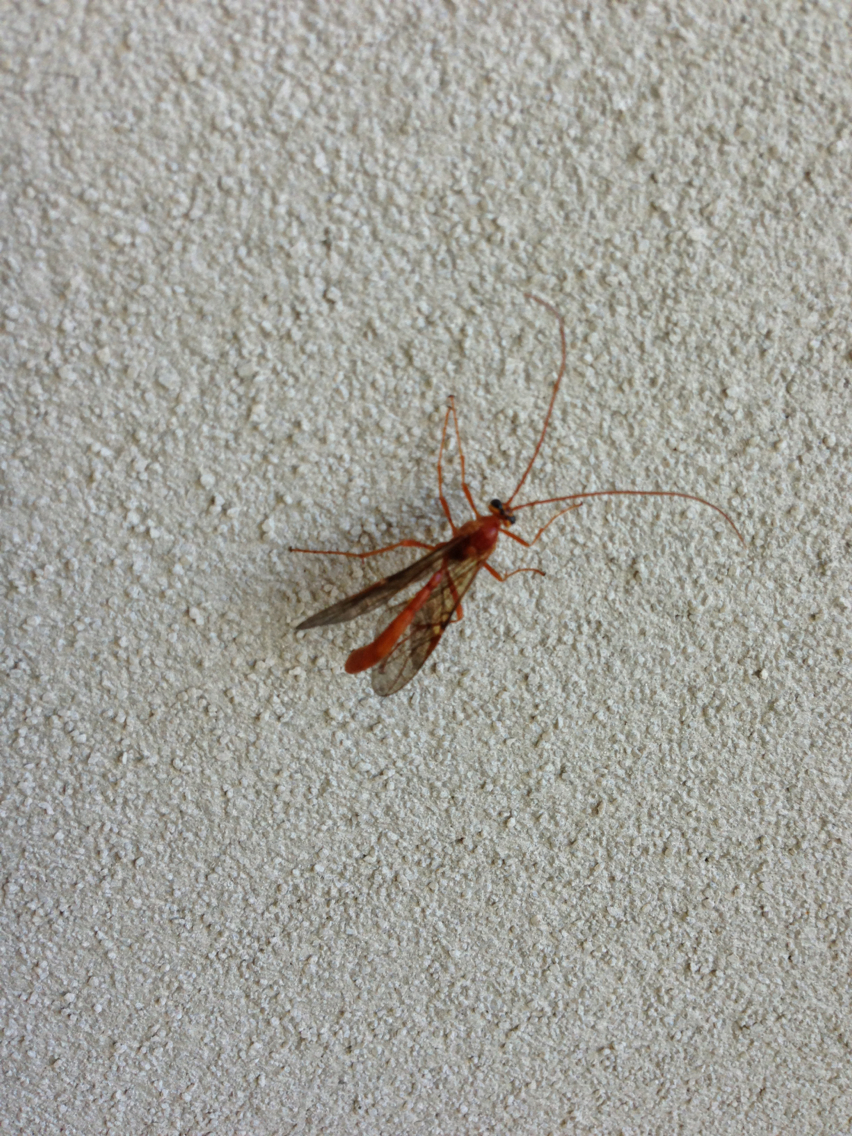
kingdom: Animalia
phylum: Arthropoda
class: Insecta
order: Hymenoptera
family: Ichneumonidae
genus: Ophion
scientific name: Ophion
